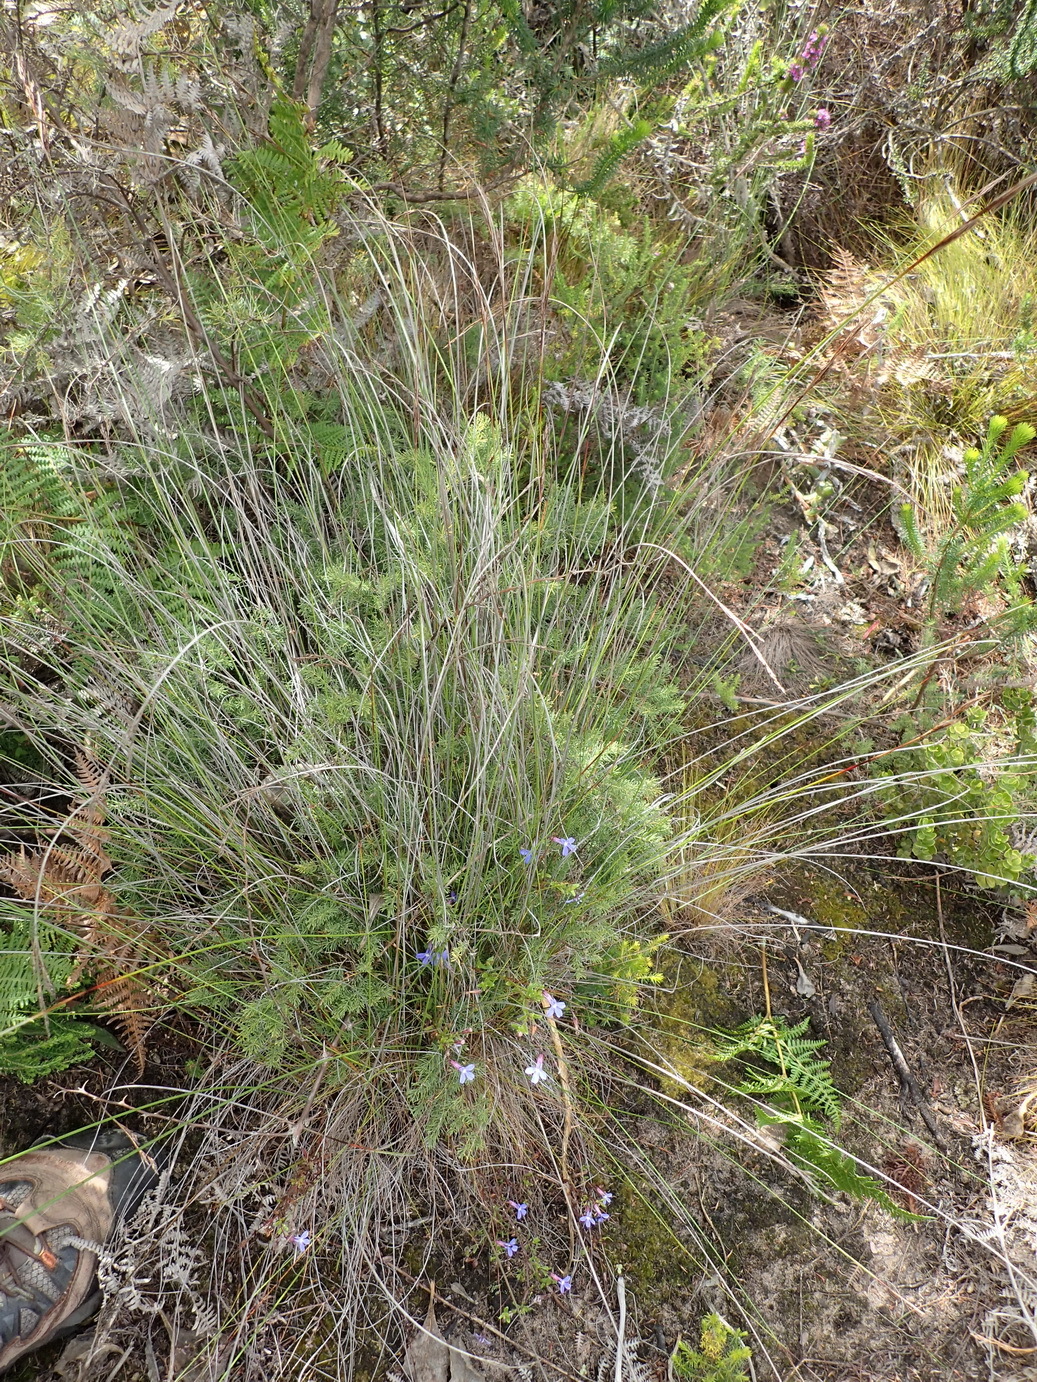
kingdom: Plantae
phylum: Tracheophyta
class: Liliopsida
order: Poales
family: Cyperaceae
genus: Schoenus
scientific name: Schoenus graciliculmis
